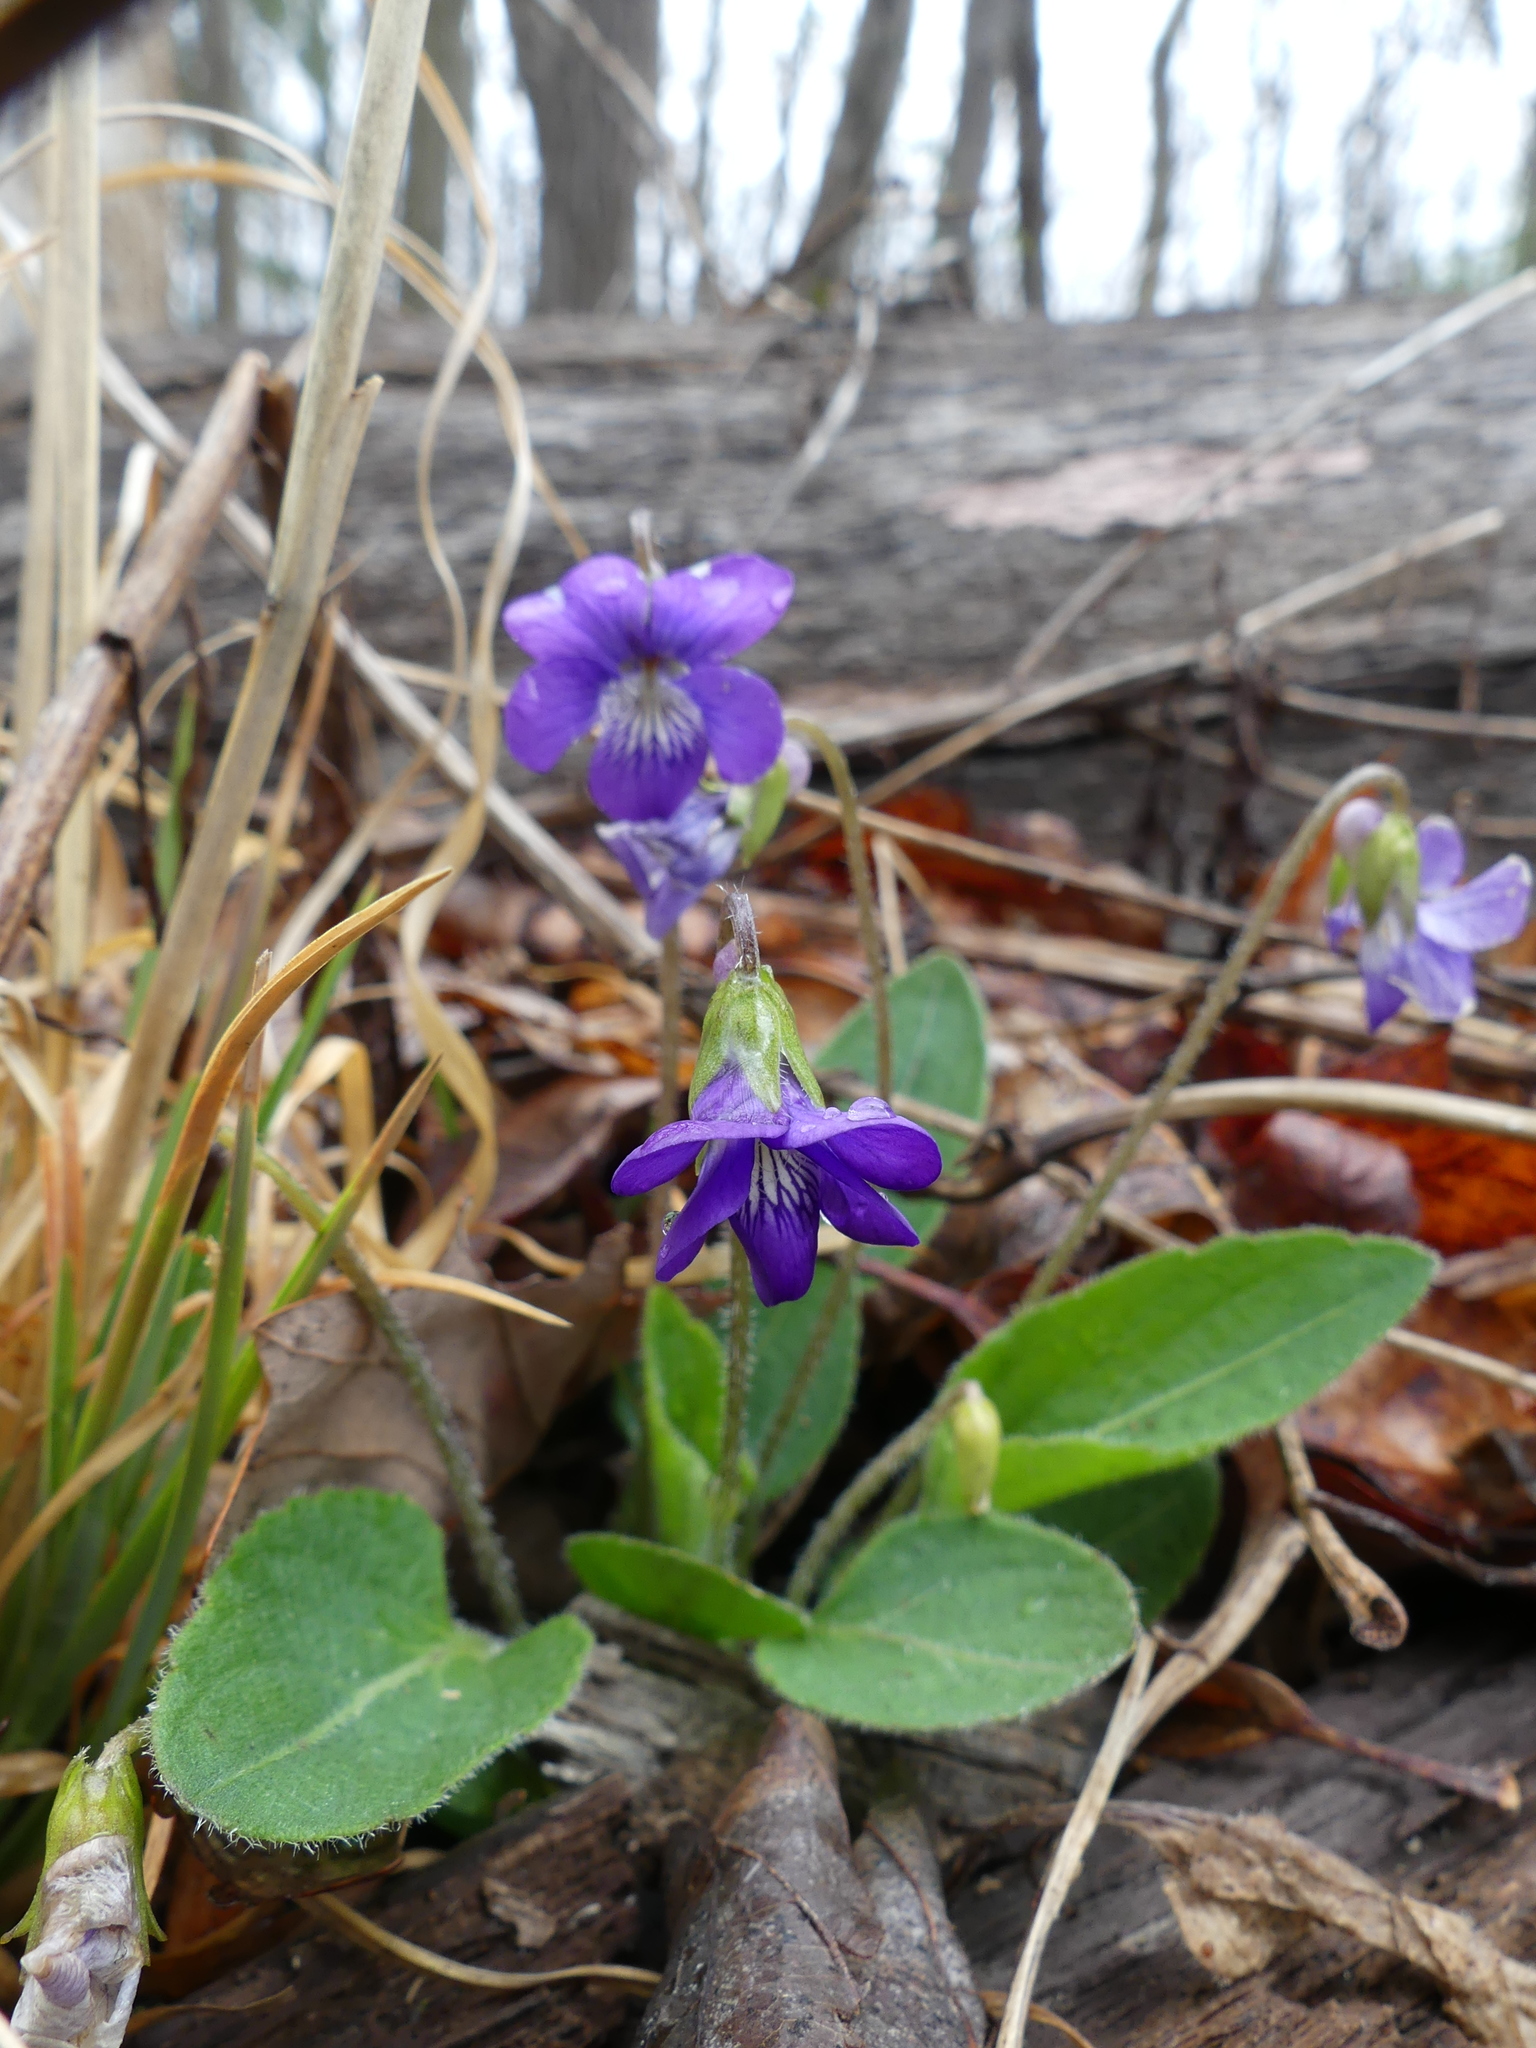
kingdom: Plantae
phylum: Tracheophyta
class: Magnoliopsida
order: Malpighiales
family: Violaceae
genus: Viola
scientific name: Viola sagittata
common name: Arrowhead violet
